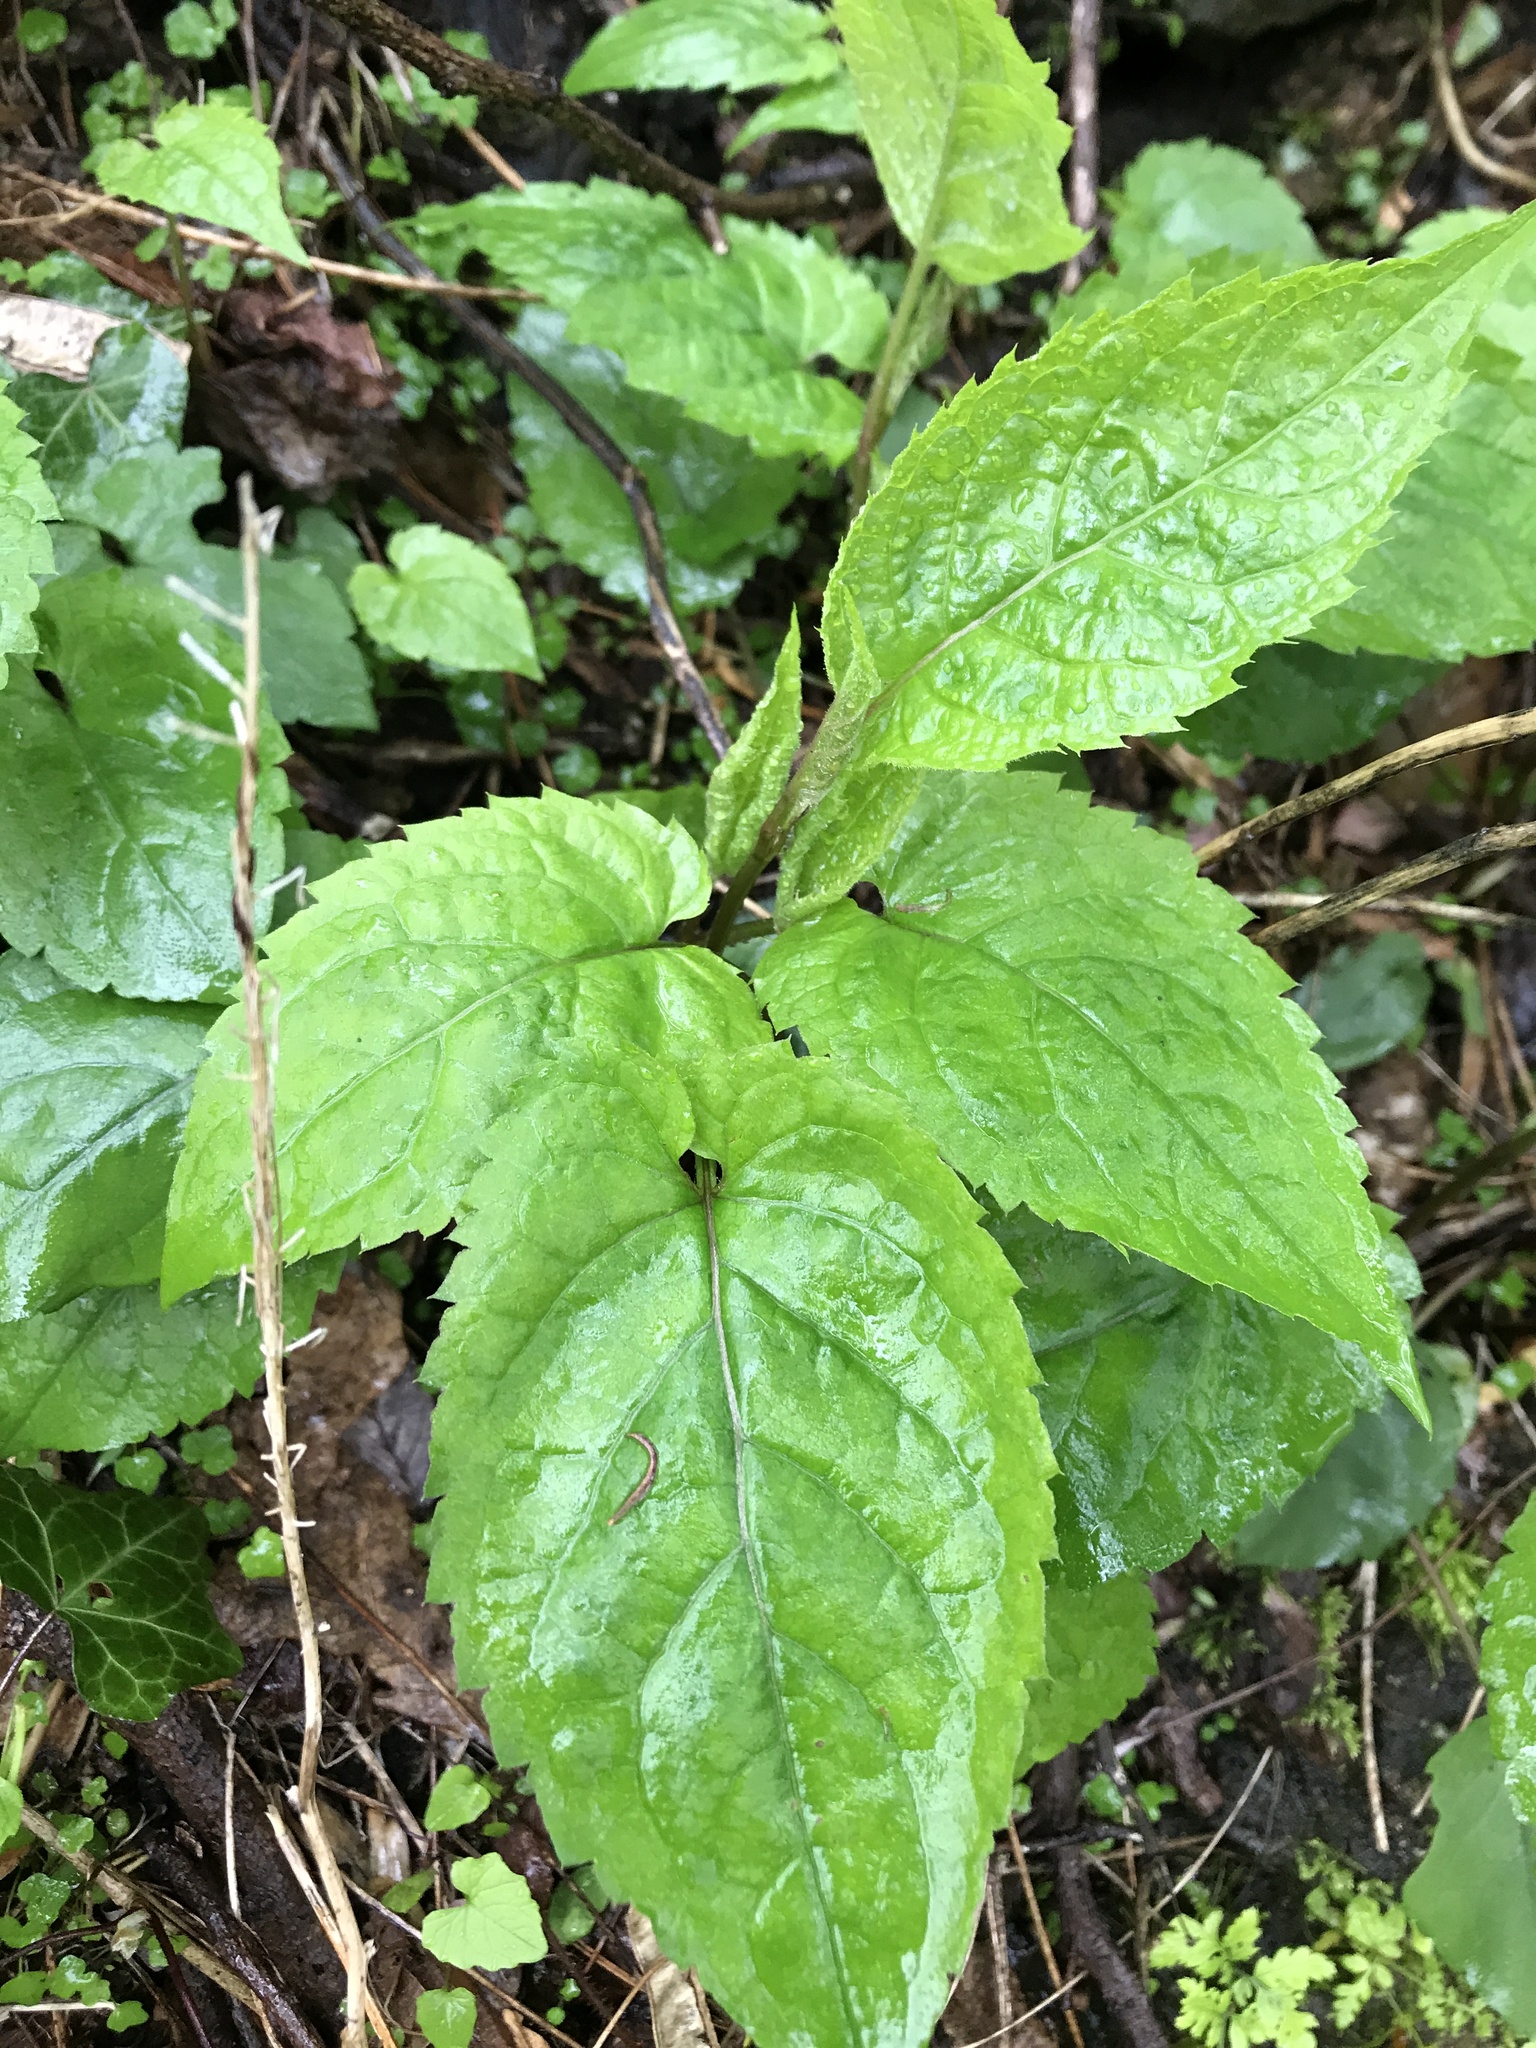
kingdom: Plantae
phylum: Tracheophyta
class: Magnoliopsida
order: Asterales
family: Asteraceae
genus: Eurybia
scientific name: Eurybia divaricata
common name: White wood aster
